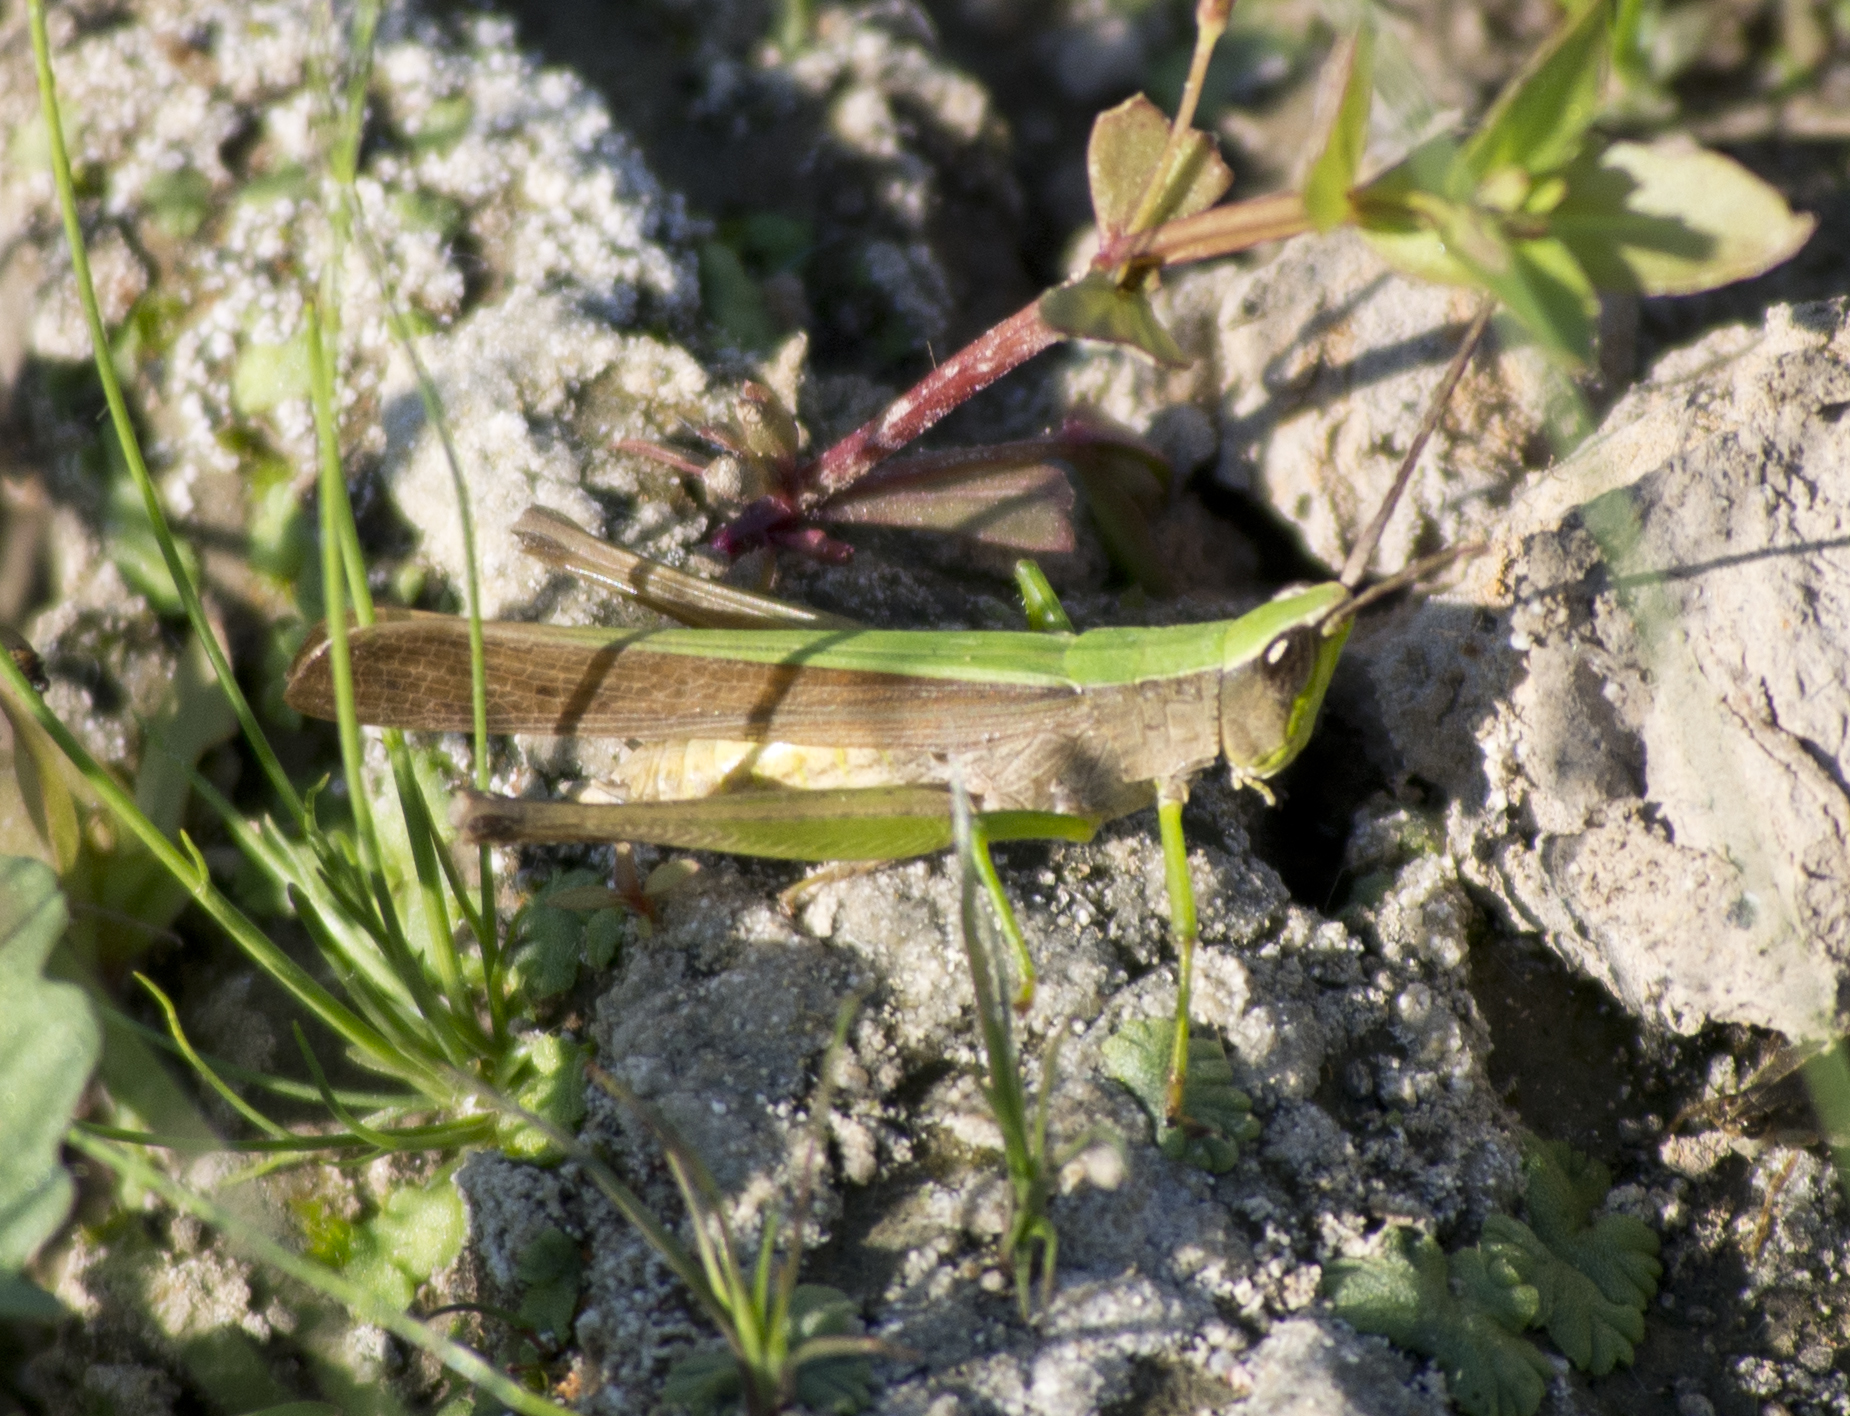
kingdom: Animalia
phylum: Arthropoda
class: Insecta
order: Orthoptera
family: Acrididae
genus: Metaleptea
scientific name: Metaleptea brevicornis
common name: Clipped-wing grasshopper
